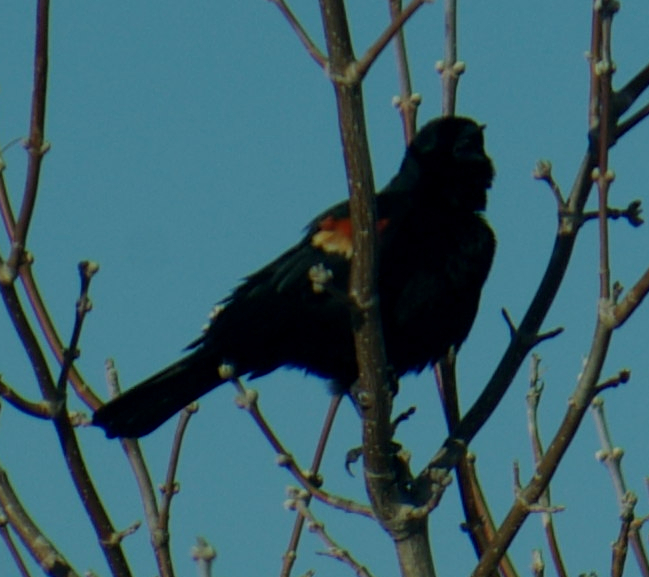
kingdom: Animalia
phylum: Chordata
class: Aves
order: Passeriformes
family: Icteridae
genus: Agelaius
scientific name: Agelaius phoeniceus
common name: Red-winged blackbird
